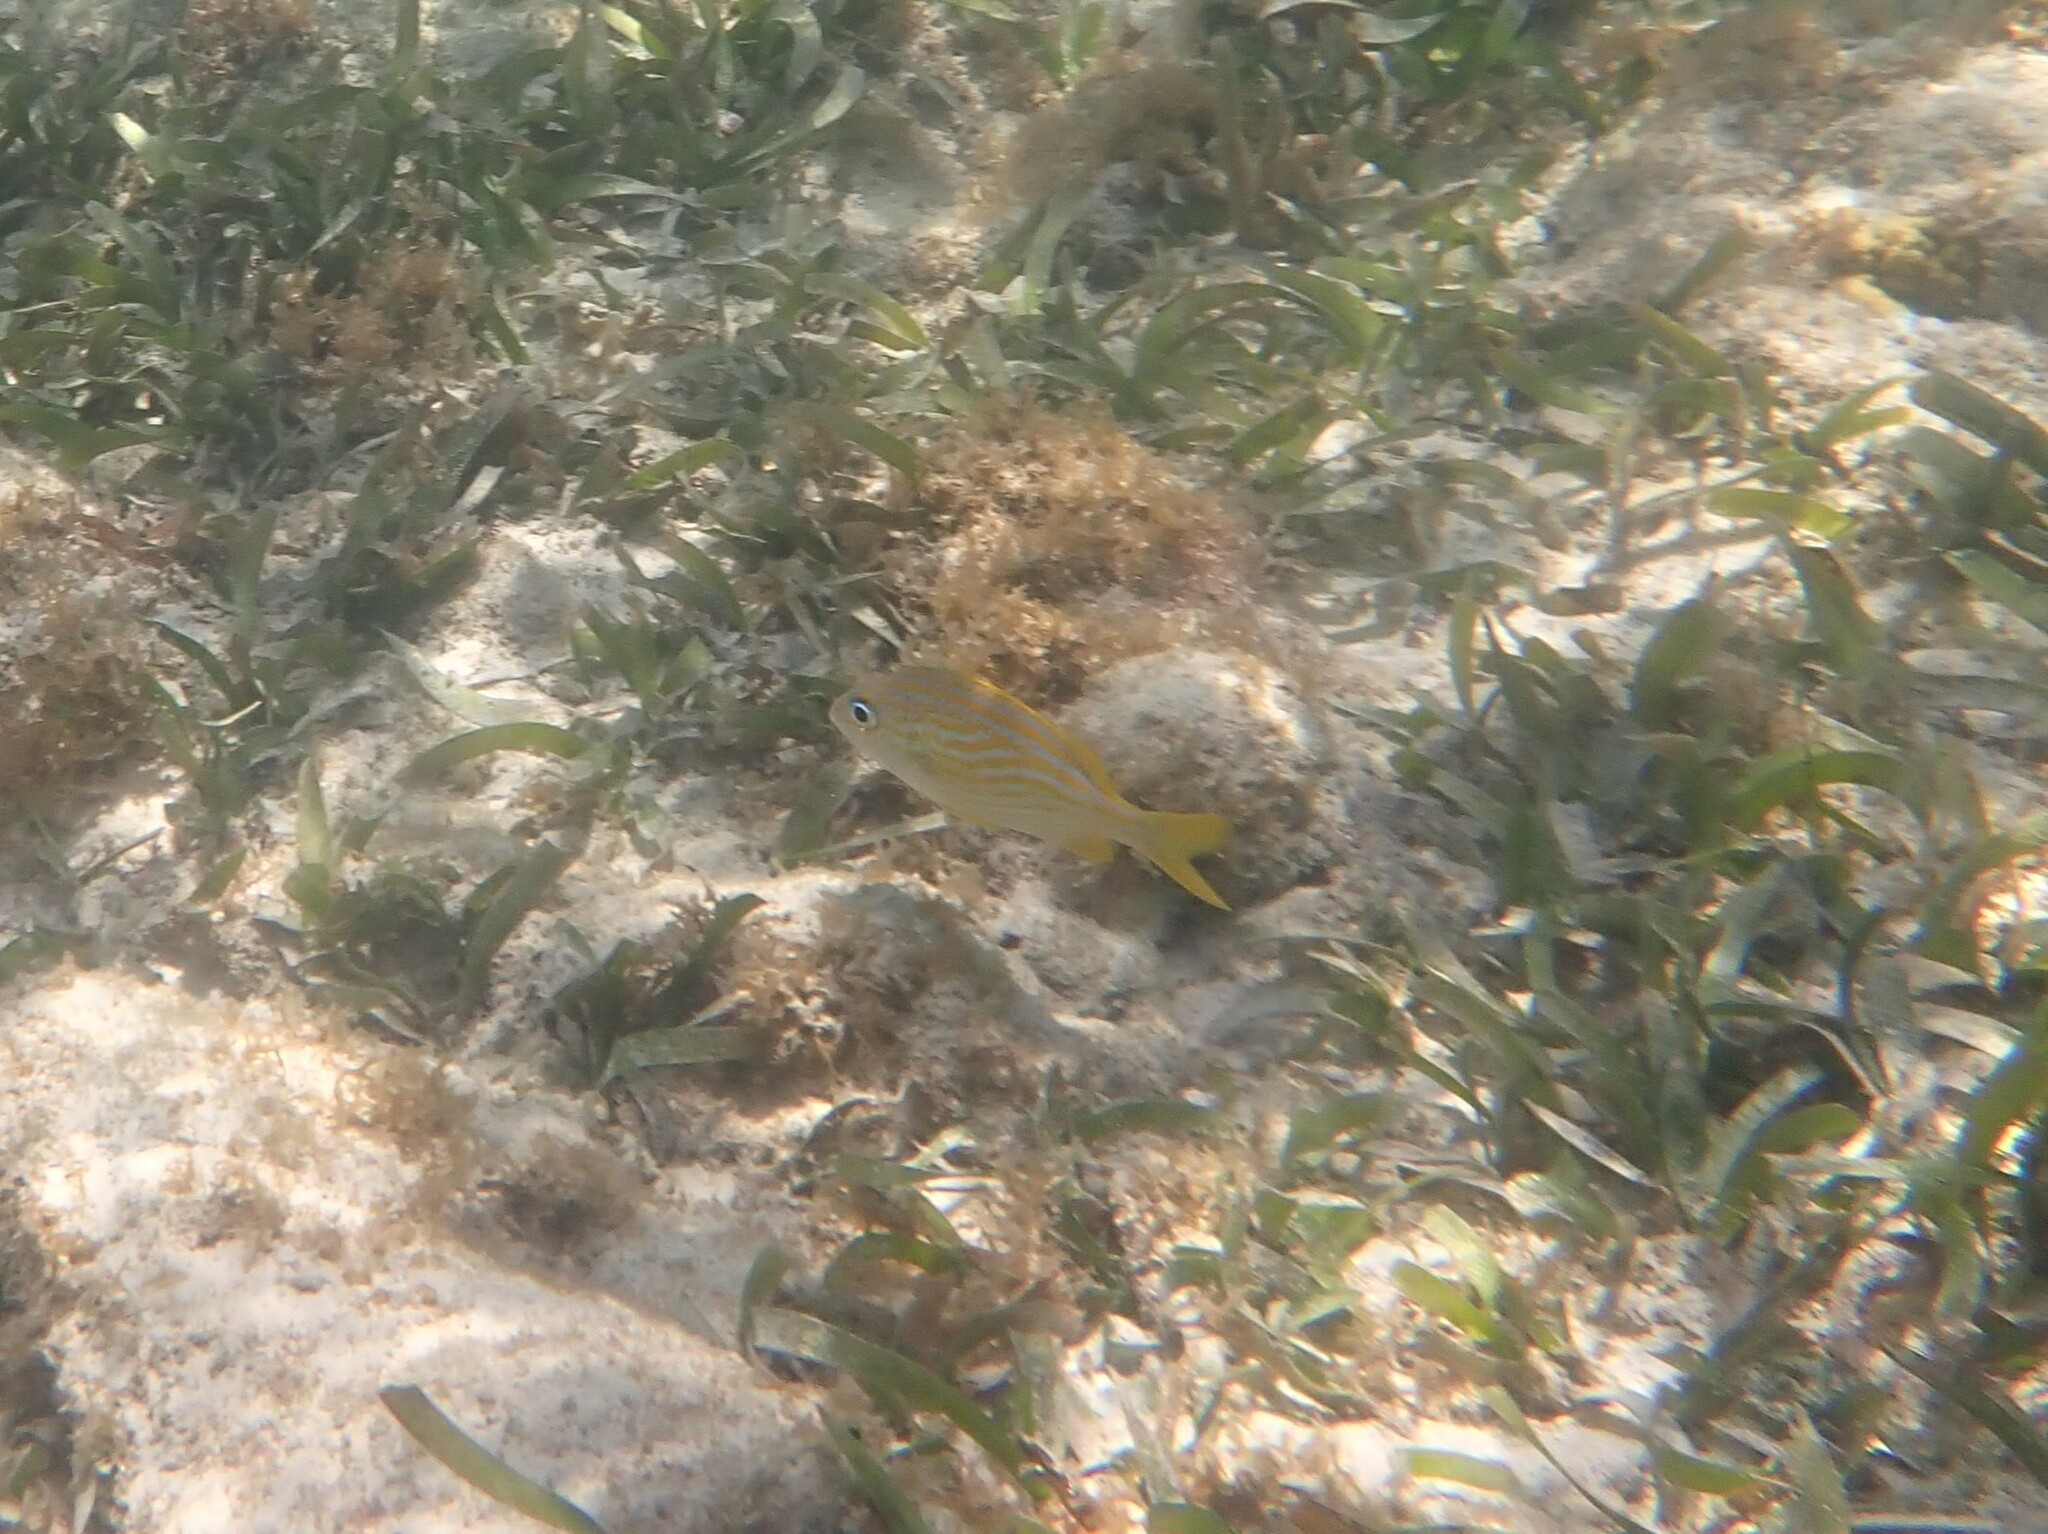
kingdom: Animalia
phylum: Chordata
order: Perciformes
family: Haemulidae
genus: Haemulon
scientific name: Haemulon flavolineatum
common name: French grunt
